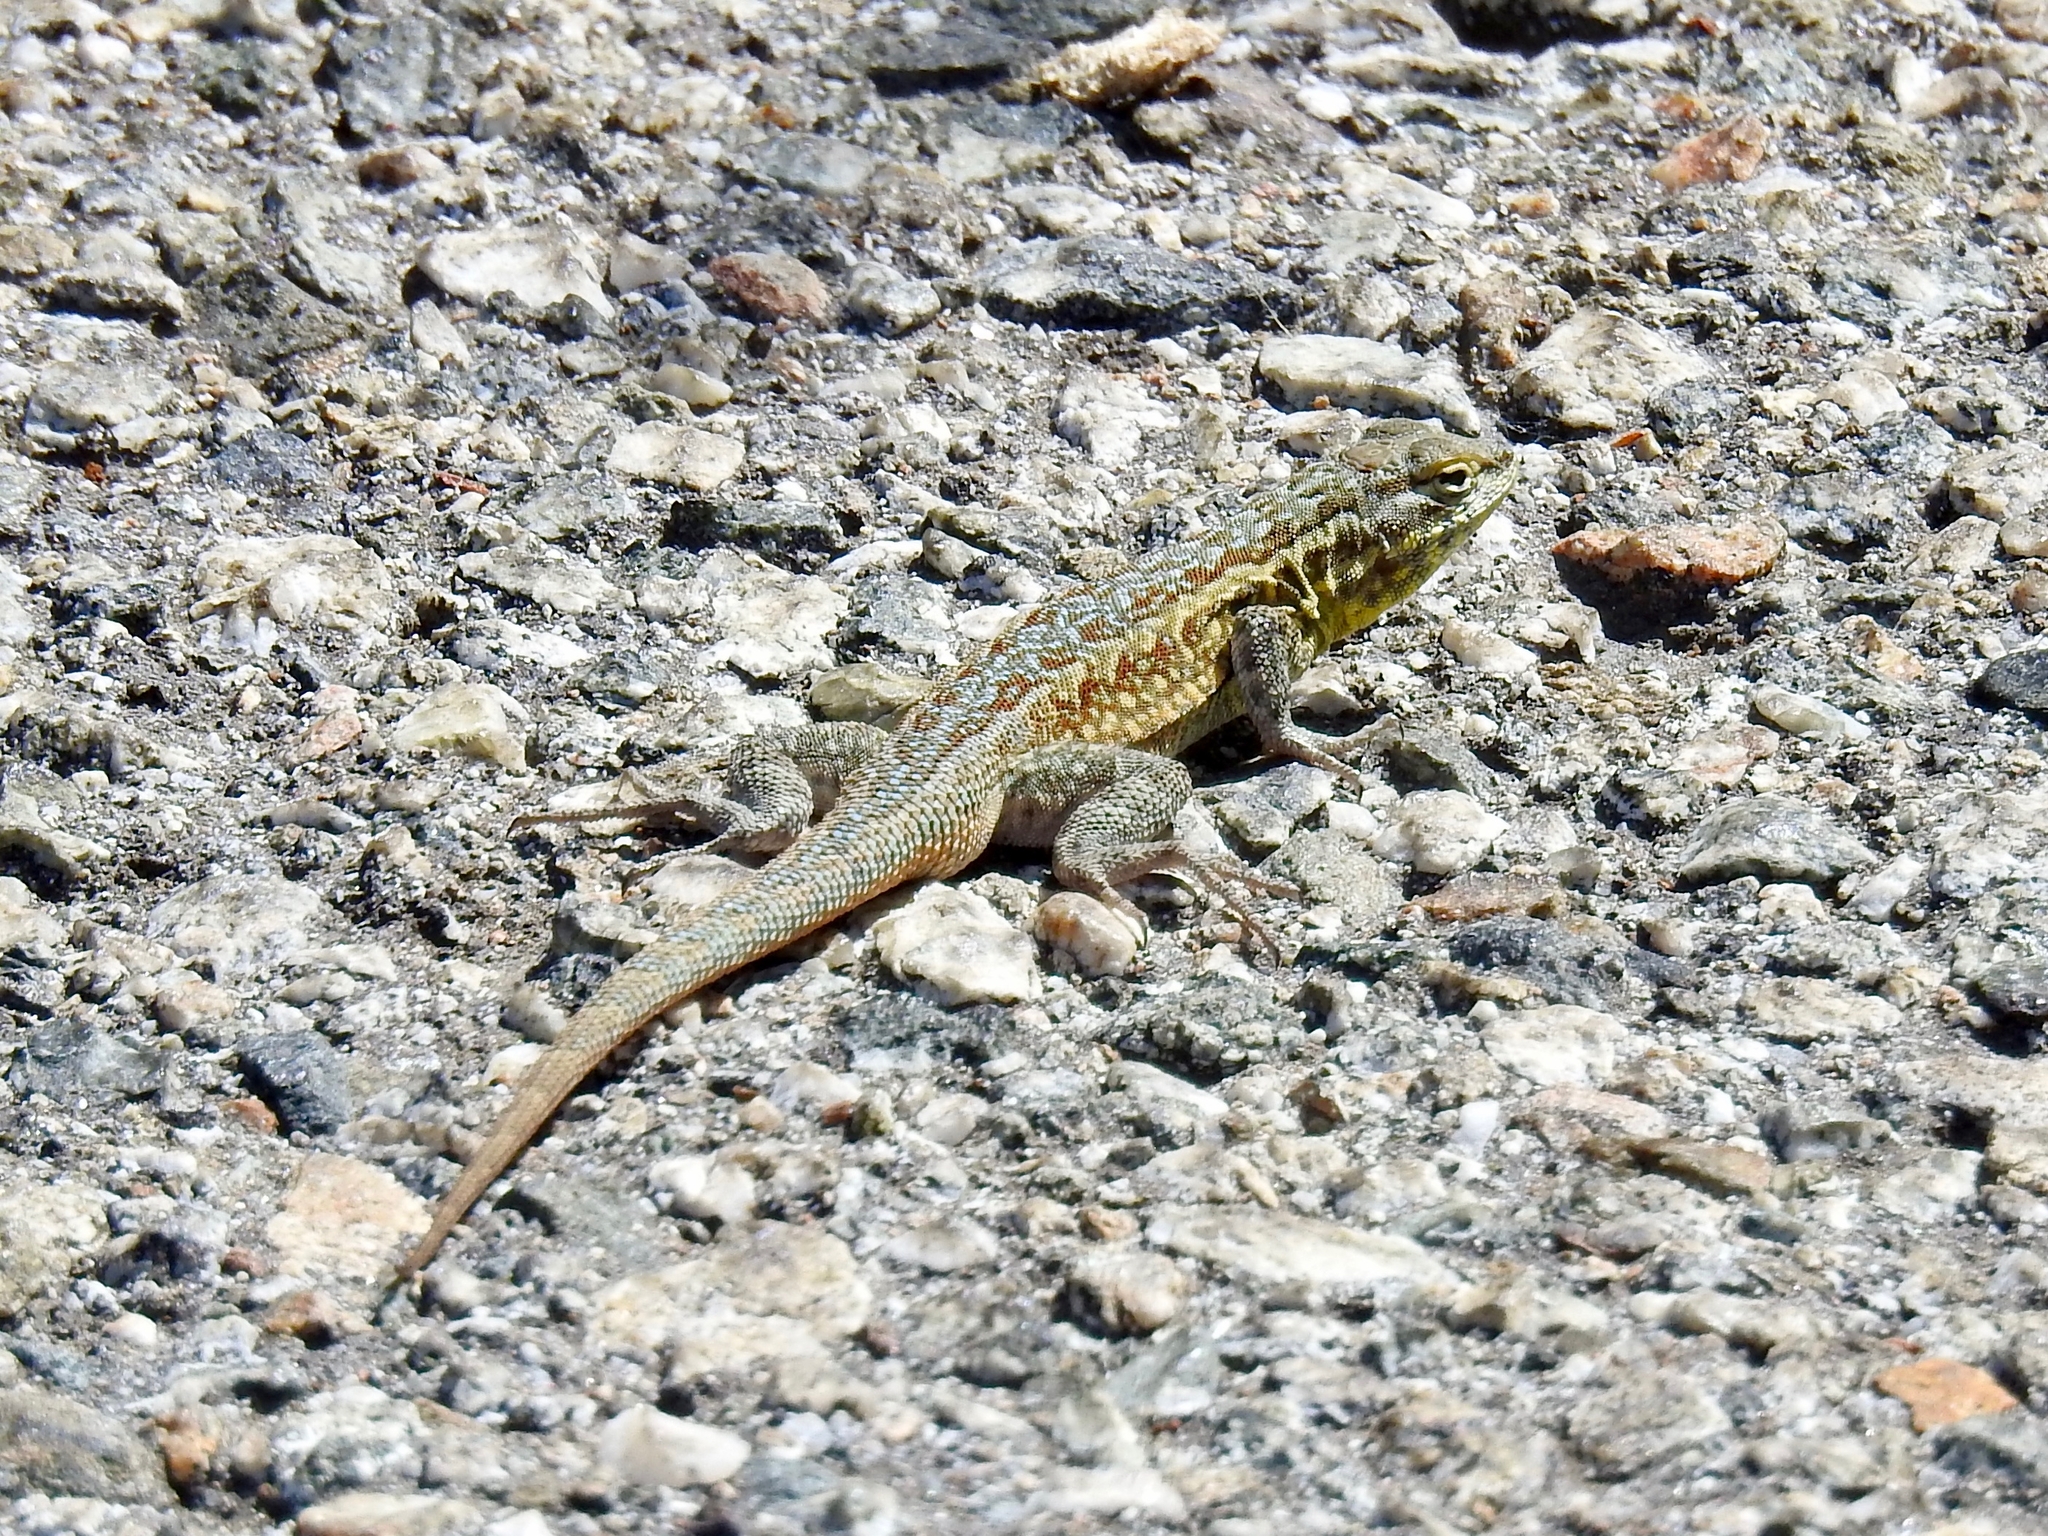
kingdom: Animalia
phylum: Chordata
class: Squamata
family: Phrynosomatidae
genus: Uta
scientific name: Uta stansburiana
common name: Side-blotched lizard
